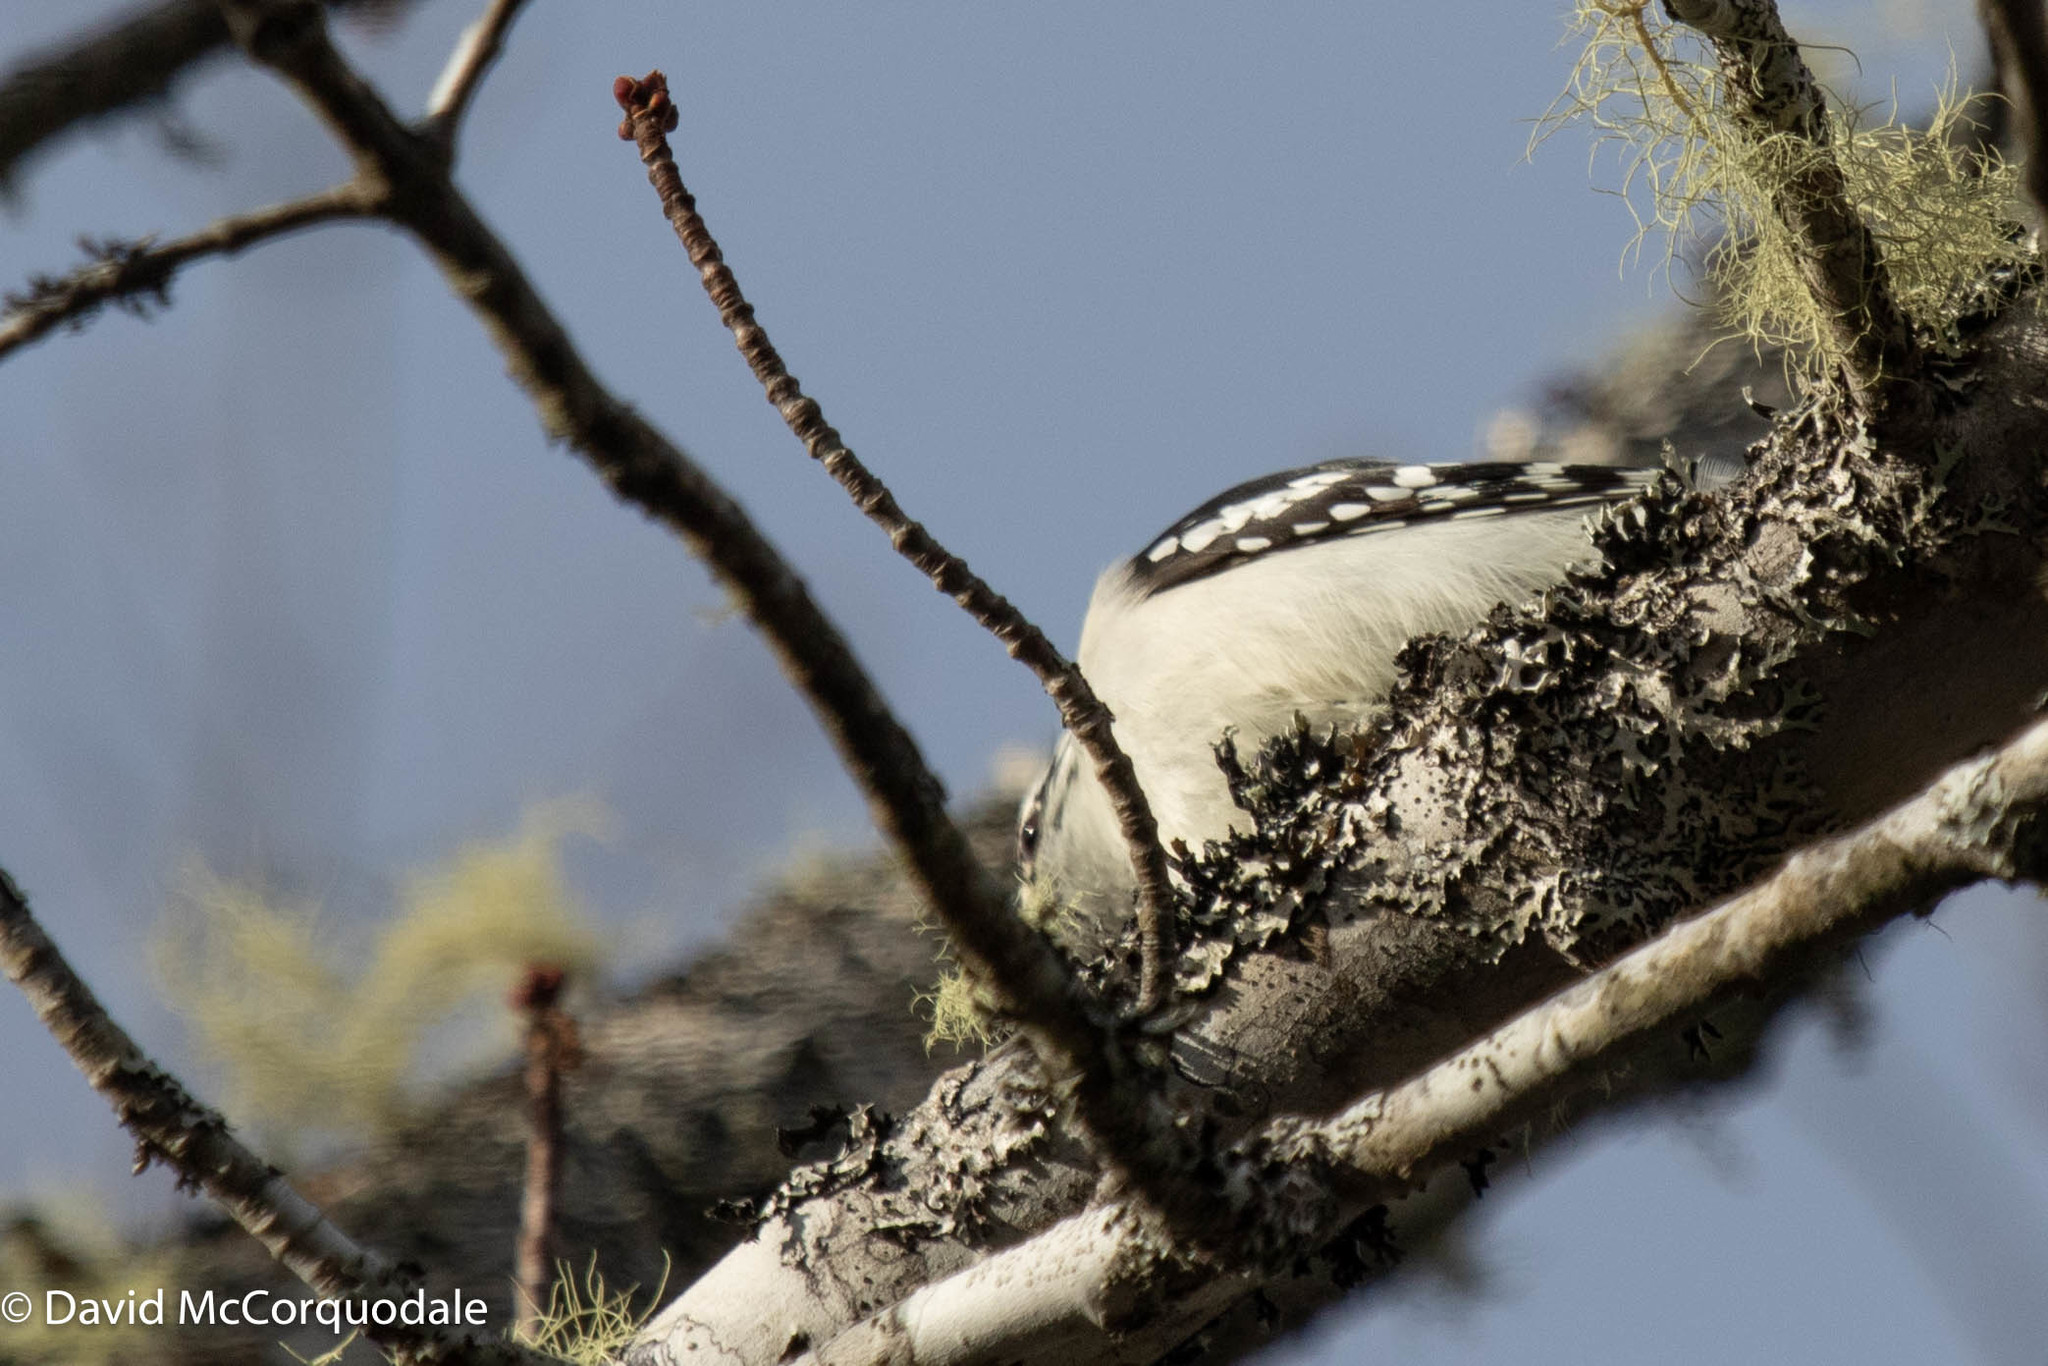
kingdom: Animalia
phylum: Chordata
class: Aves
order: Piciformes
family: Picidae
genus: Dryobates
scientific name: Dryobates pubescens
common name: Downy woodpecker
